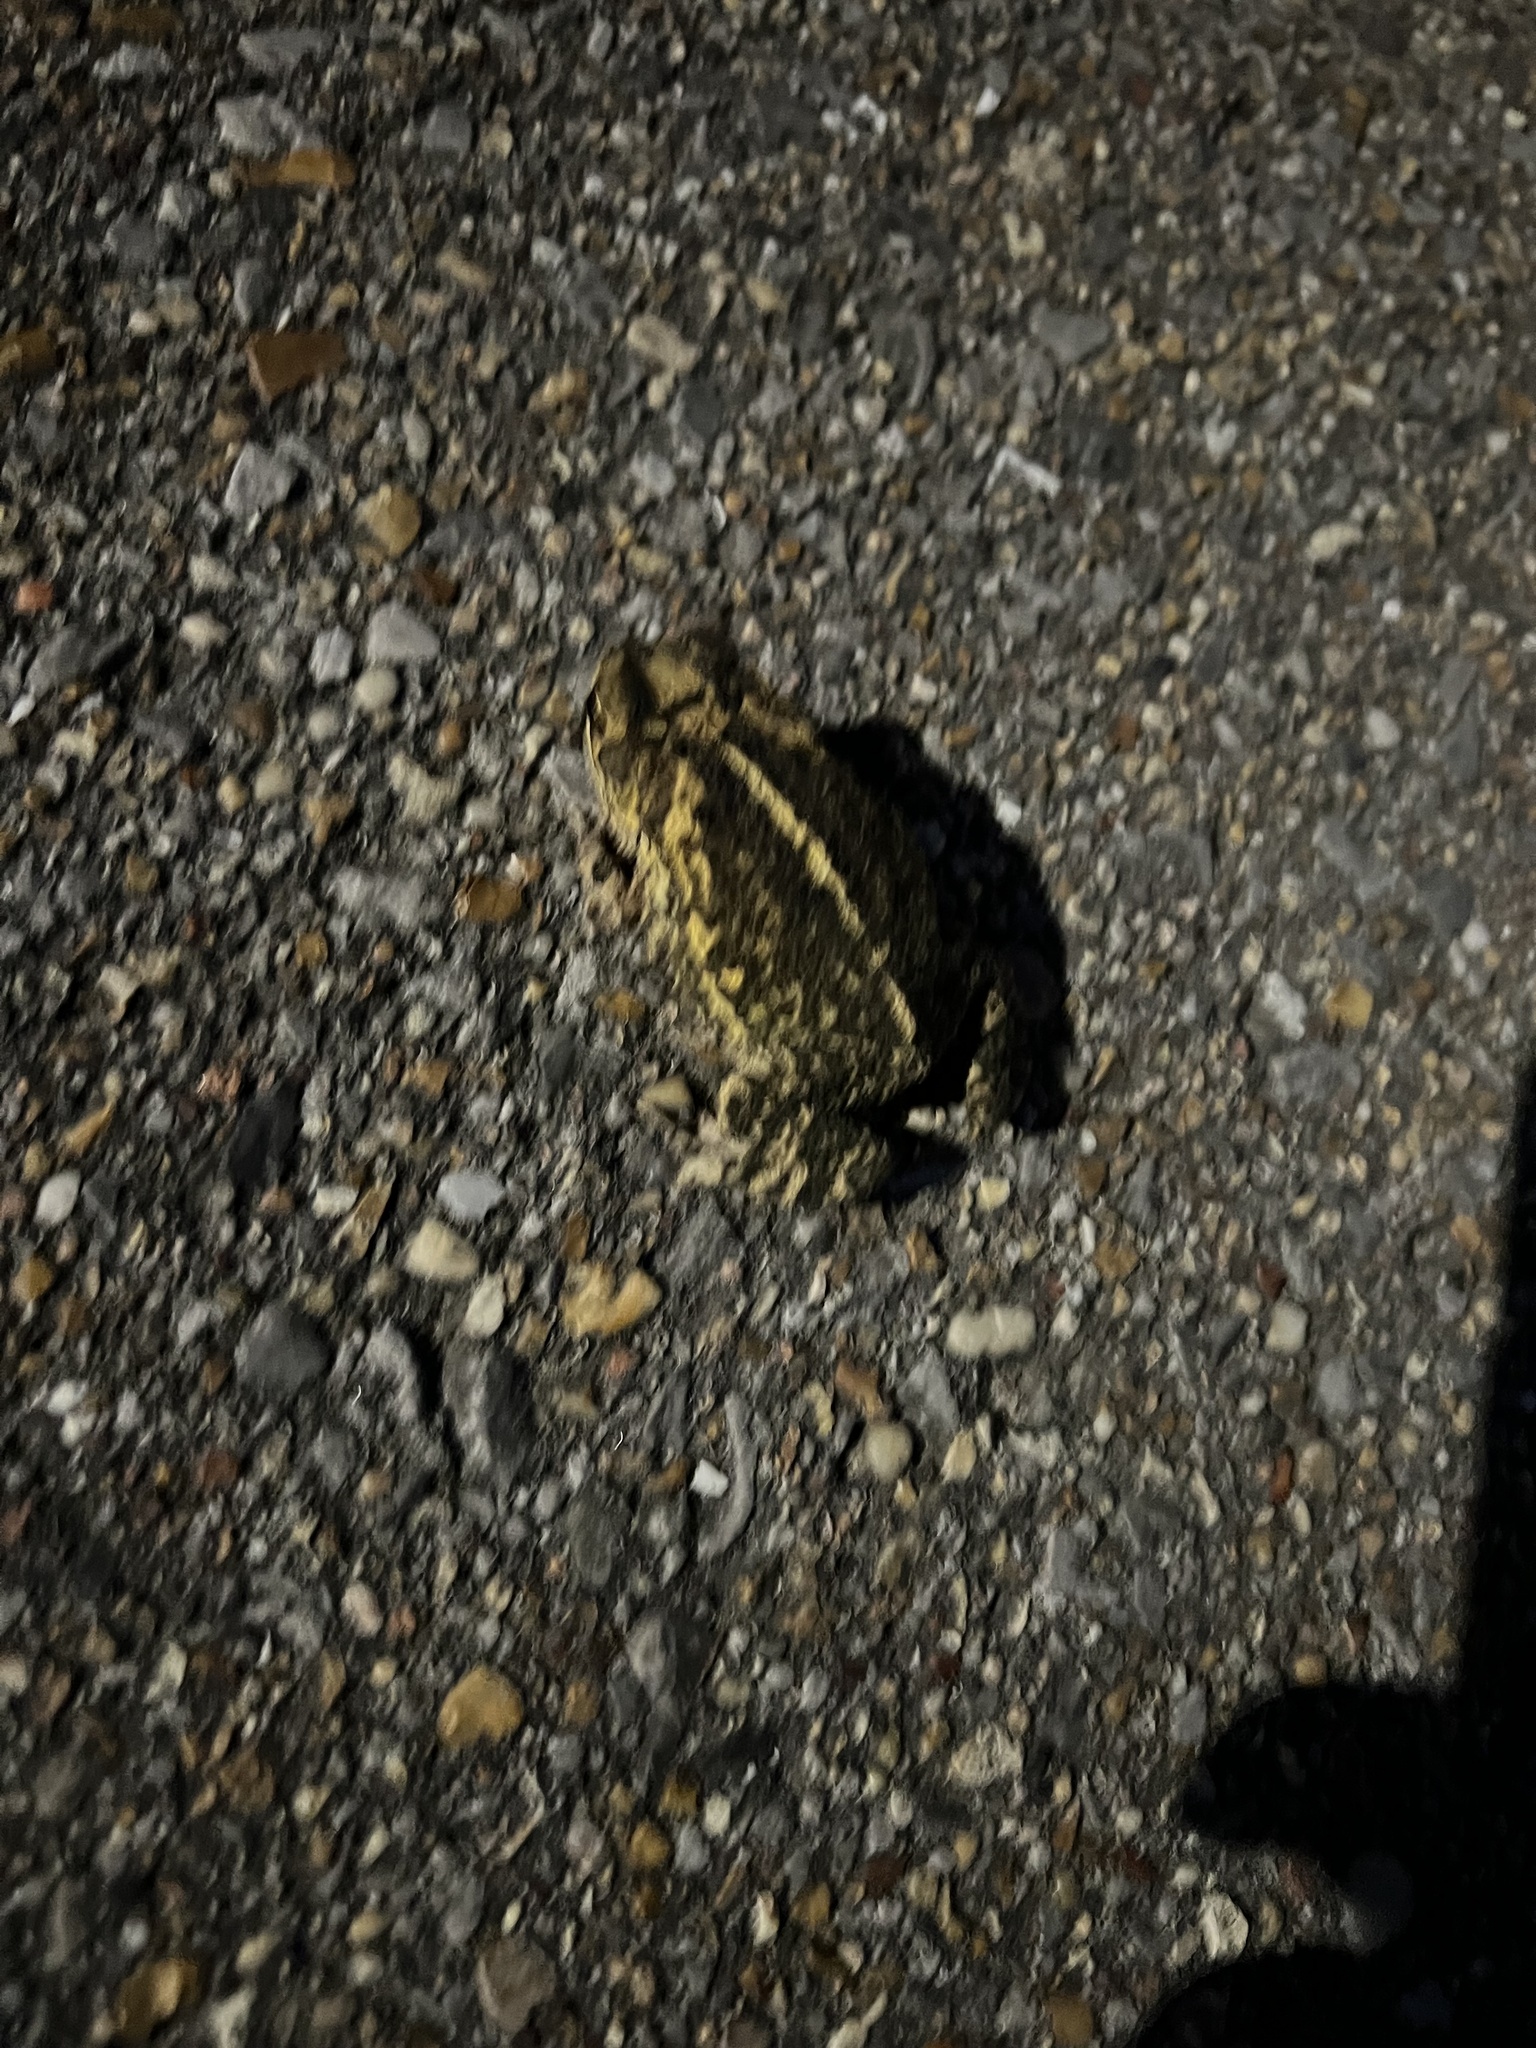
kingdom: Animalia
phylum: Chordata
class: Amphibia
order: Anura
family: Bufonidae
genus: Incilius
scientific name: Incilius nebulifer
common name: Gulf coast toad
